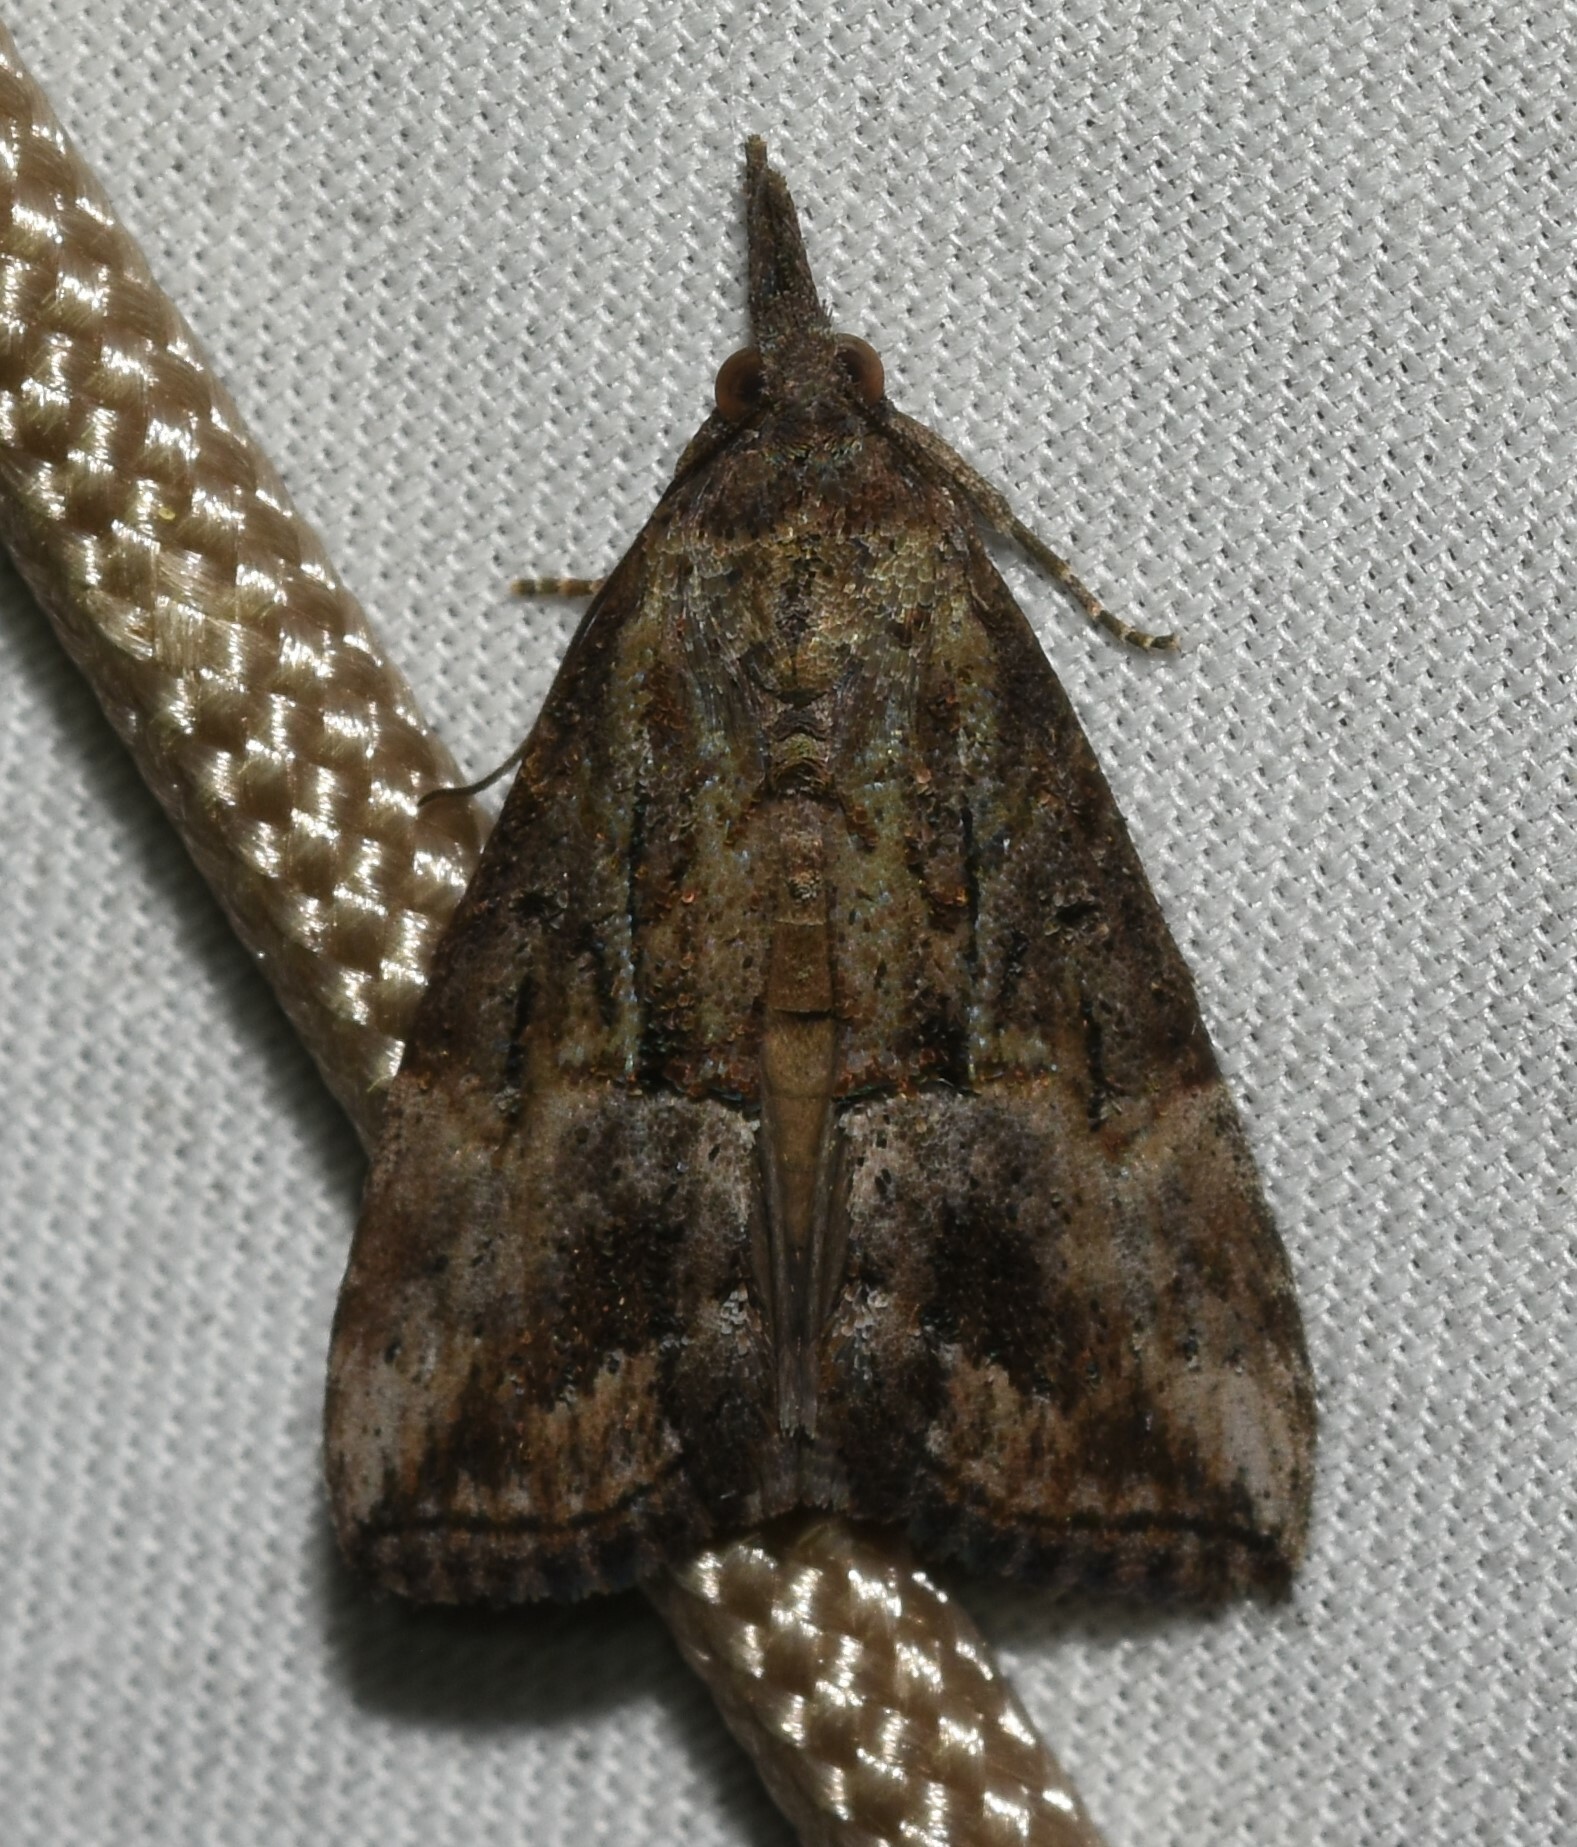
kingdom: Animalia
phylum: Arthropoda
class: Insecta
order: Lepidoptera
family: Erebidae
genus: Hypena
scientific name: Hypena scabra
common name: Green cloverworm
